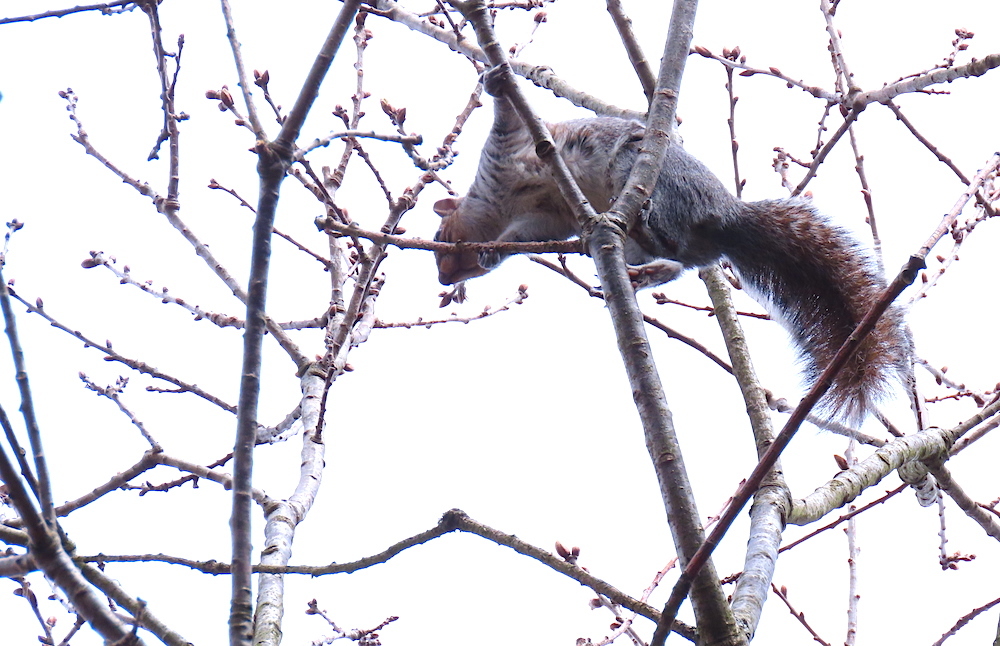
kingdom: Animalia
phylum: Chordata
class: Mammalia
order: Rodentia
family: Sciuridae
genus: Sciurus
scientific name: Sciurus carolinensis
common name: Eastern gray squirrel
